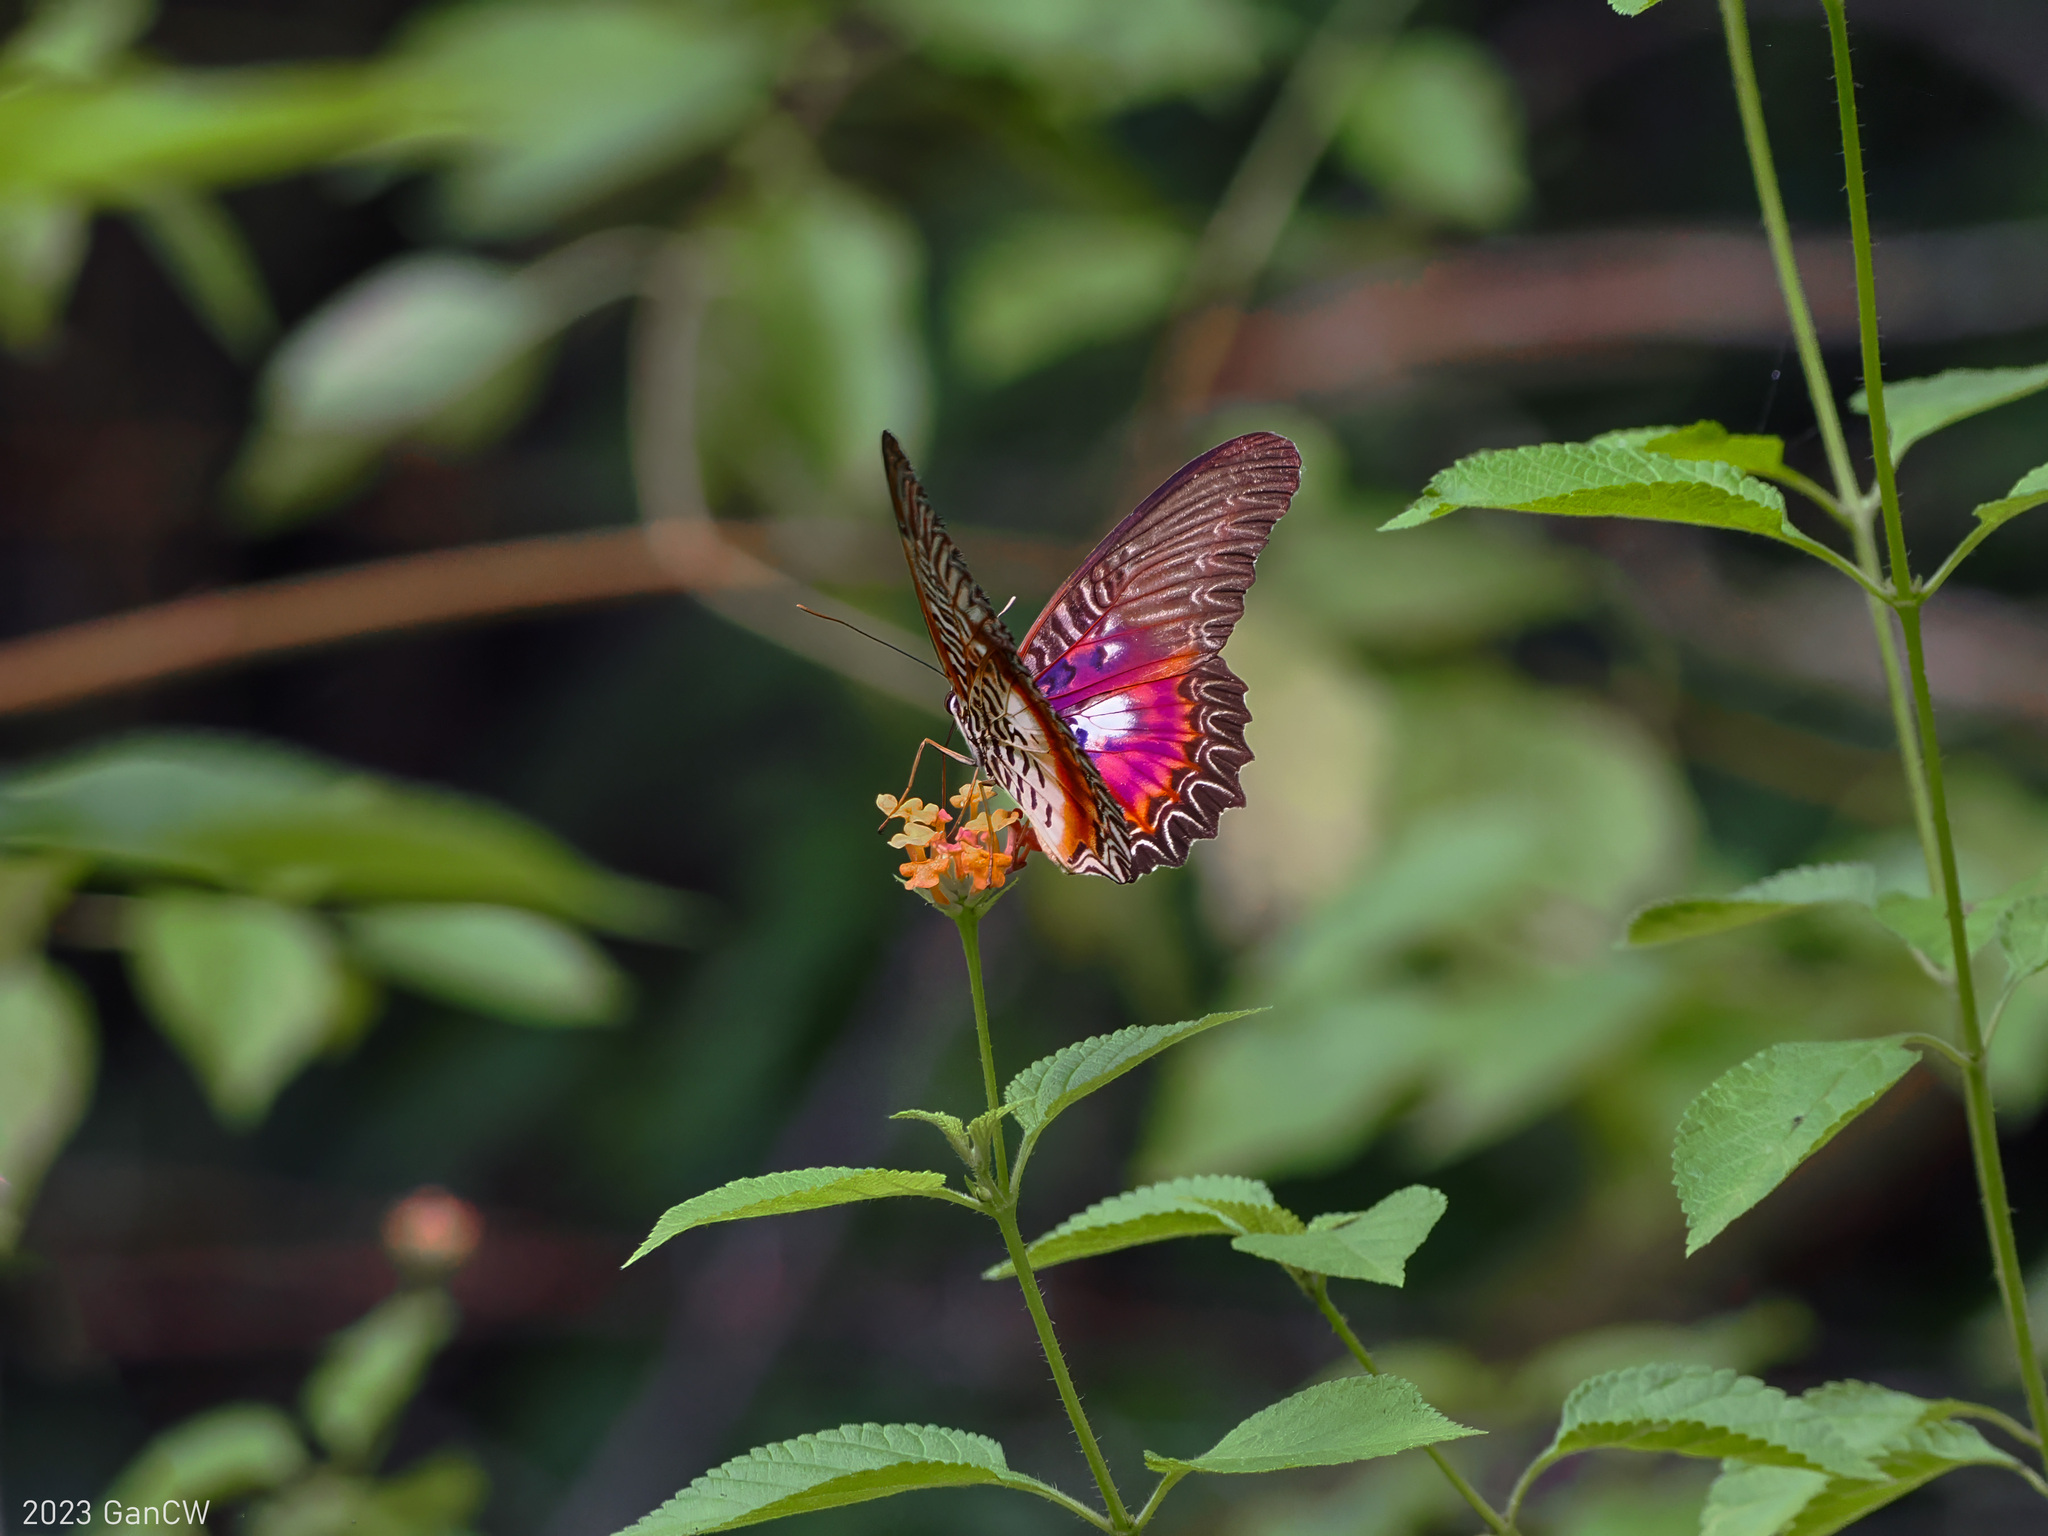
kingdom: Animalia
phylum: Arthropoda
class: Insecta
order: Lepidoptera
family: Nymphalidae
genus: Cethosia
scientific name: Cethosia myrina
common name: Violet lacewing
